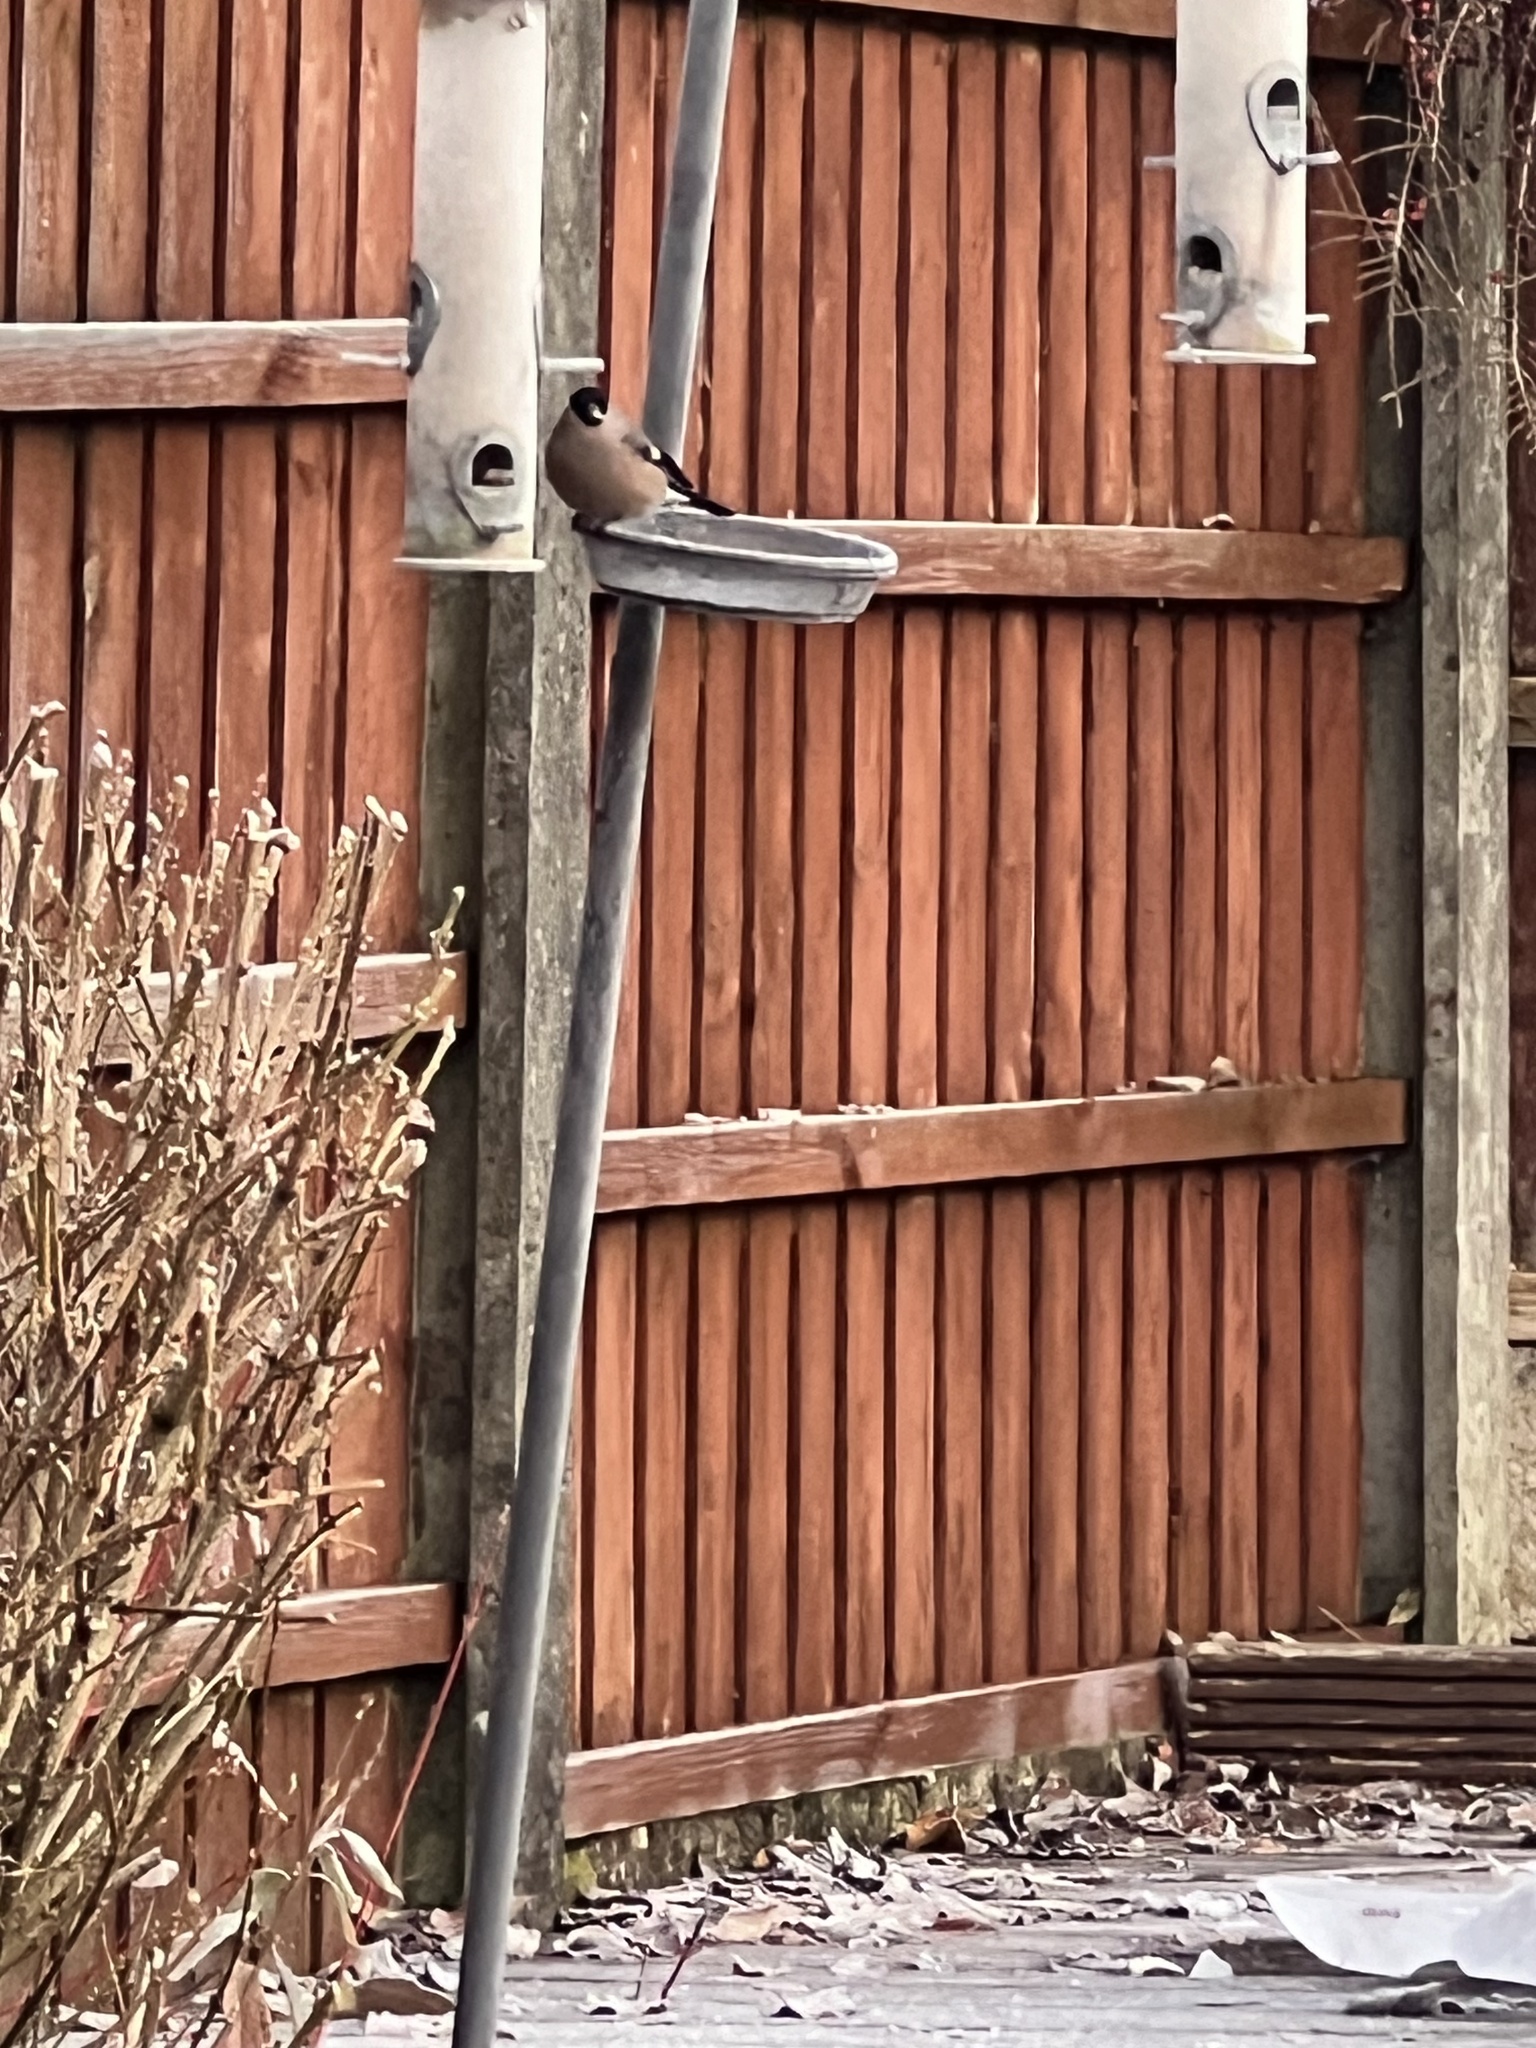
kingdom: Animalia
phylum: Chordata
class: Aves
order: Passeriformes
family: Fringillidae
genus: Pyrrhula
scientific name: Pyrrhula pyrrhula
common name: Eurasian bullfinch
